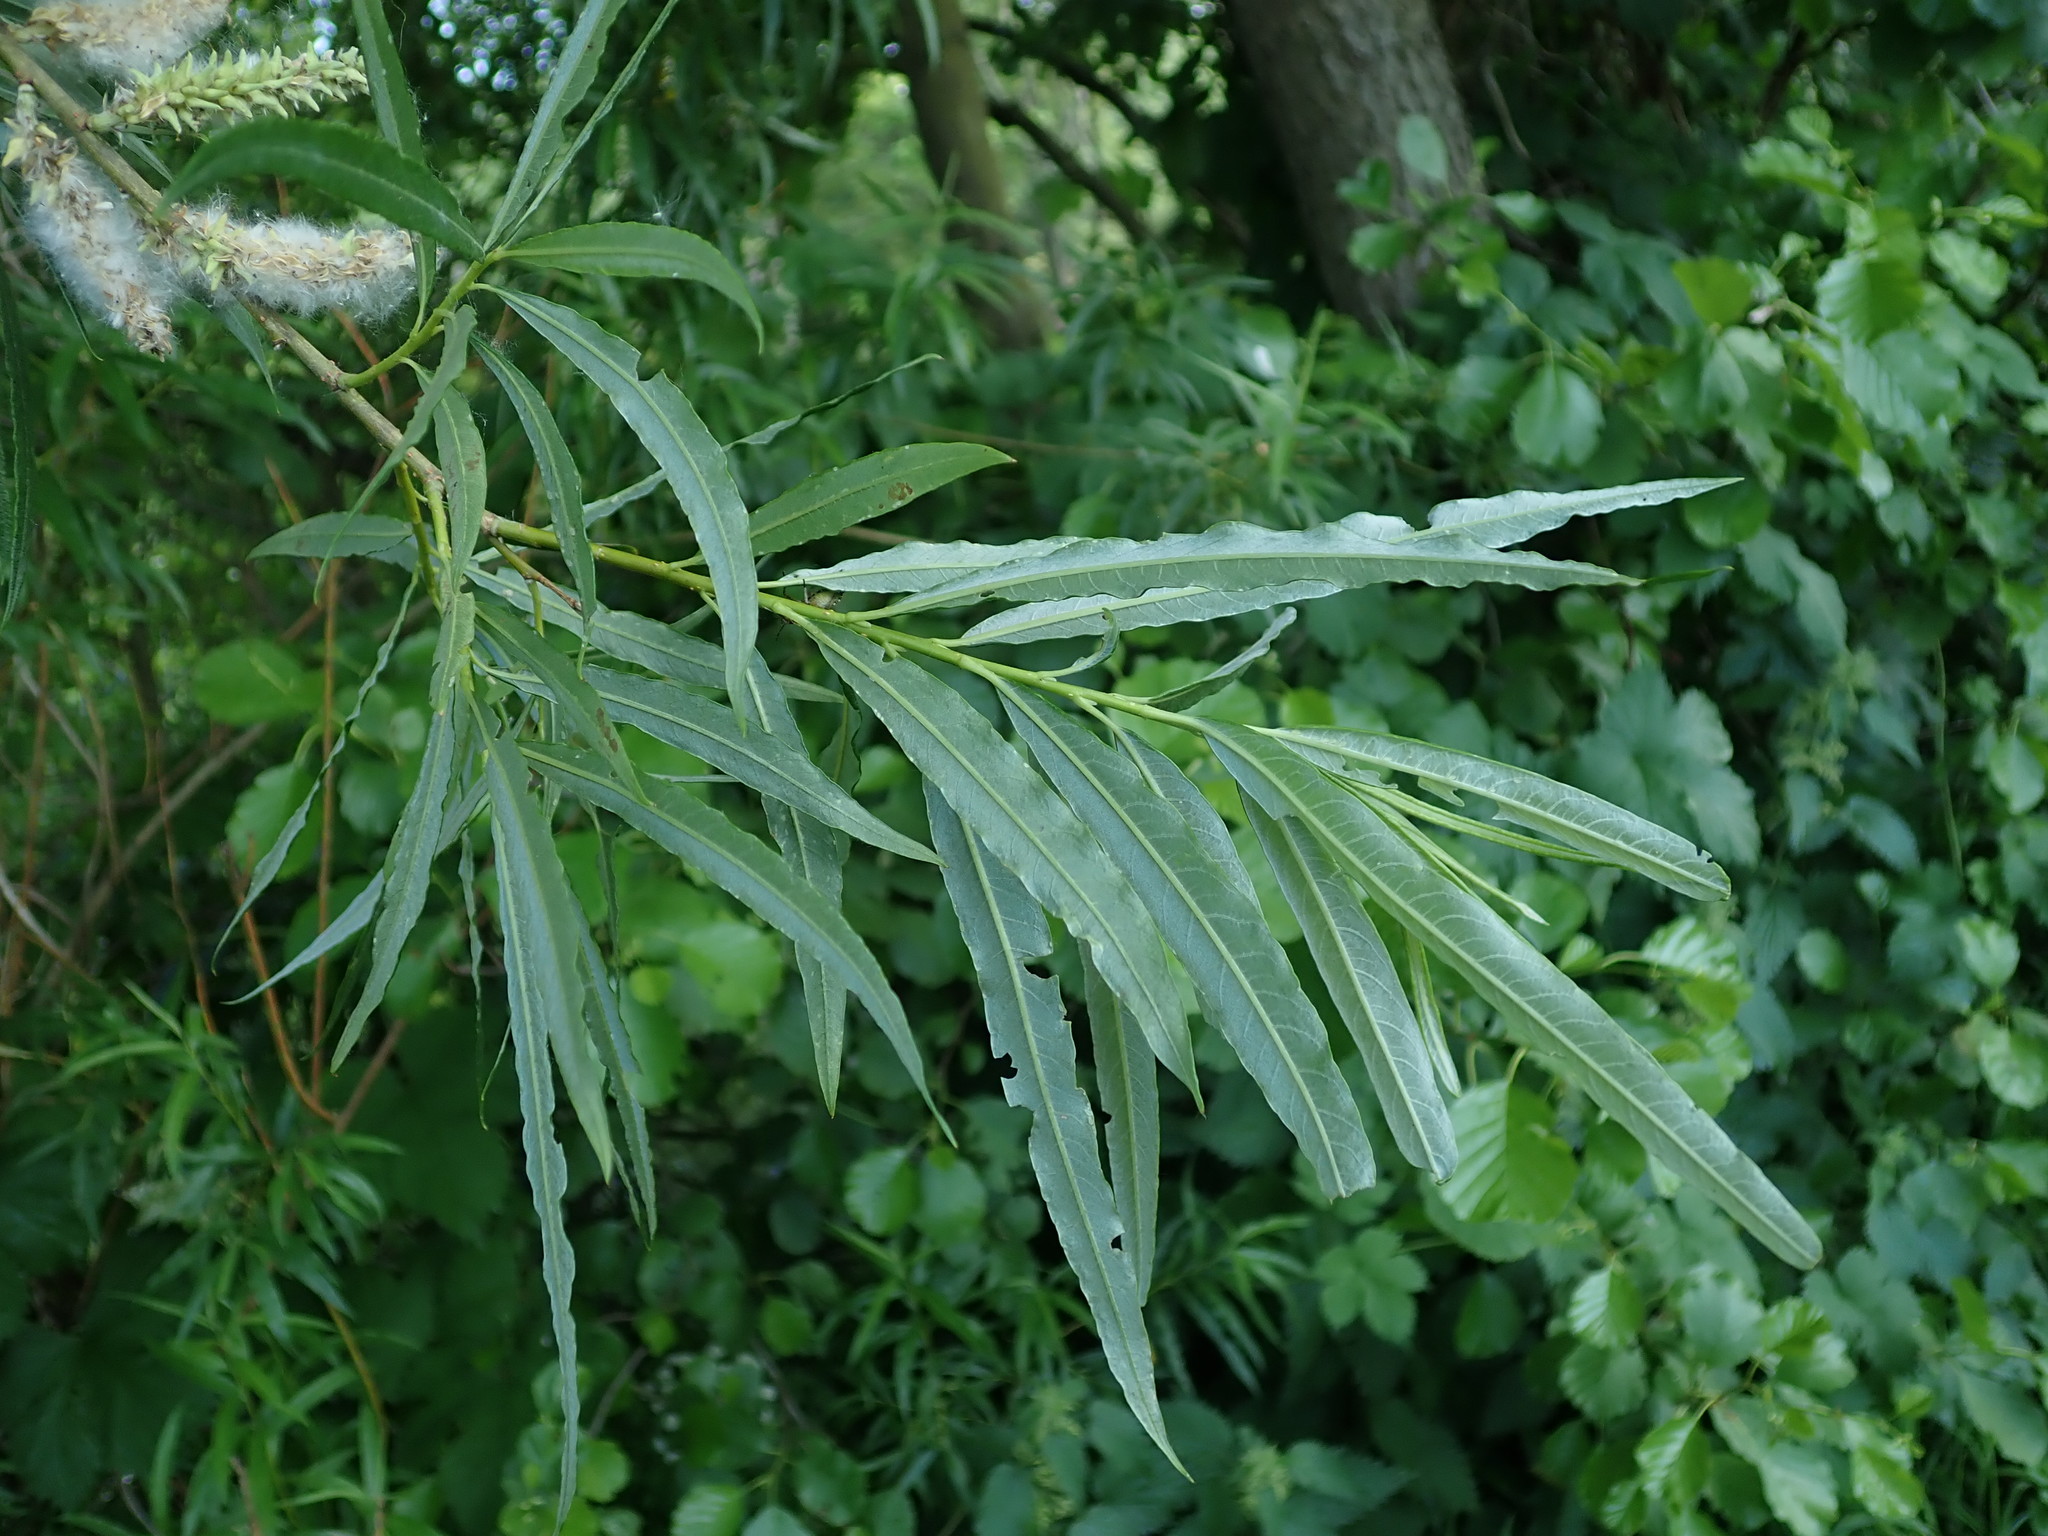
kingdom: Plantae
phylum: Tracheophyta
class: Magnoliopsida
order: Malpighiales
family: Salicaceae
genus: Salix
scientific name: Salix viminalis
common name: Osier
